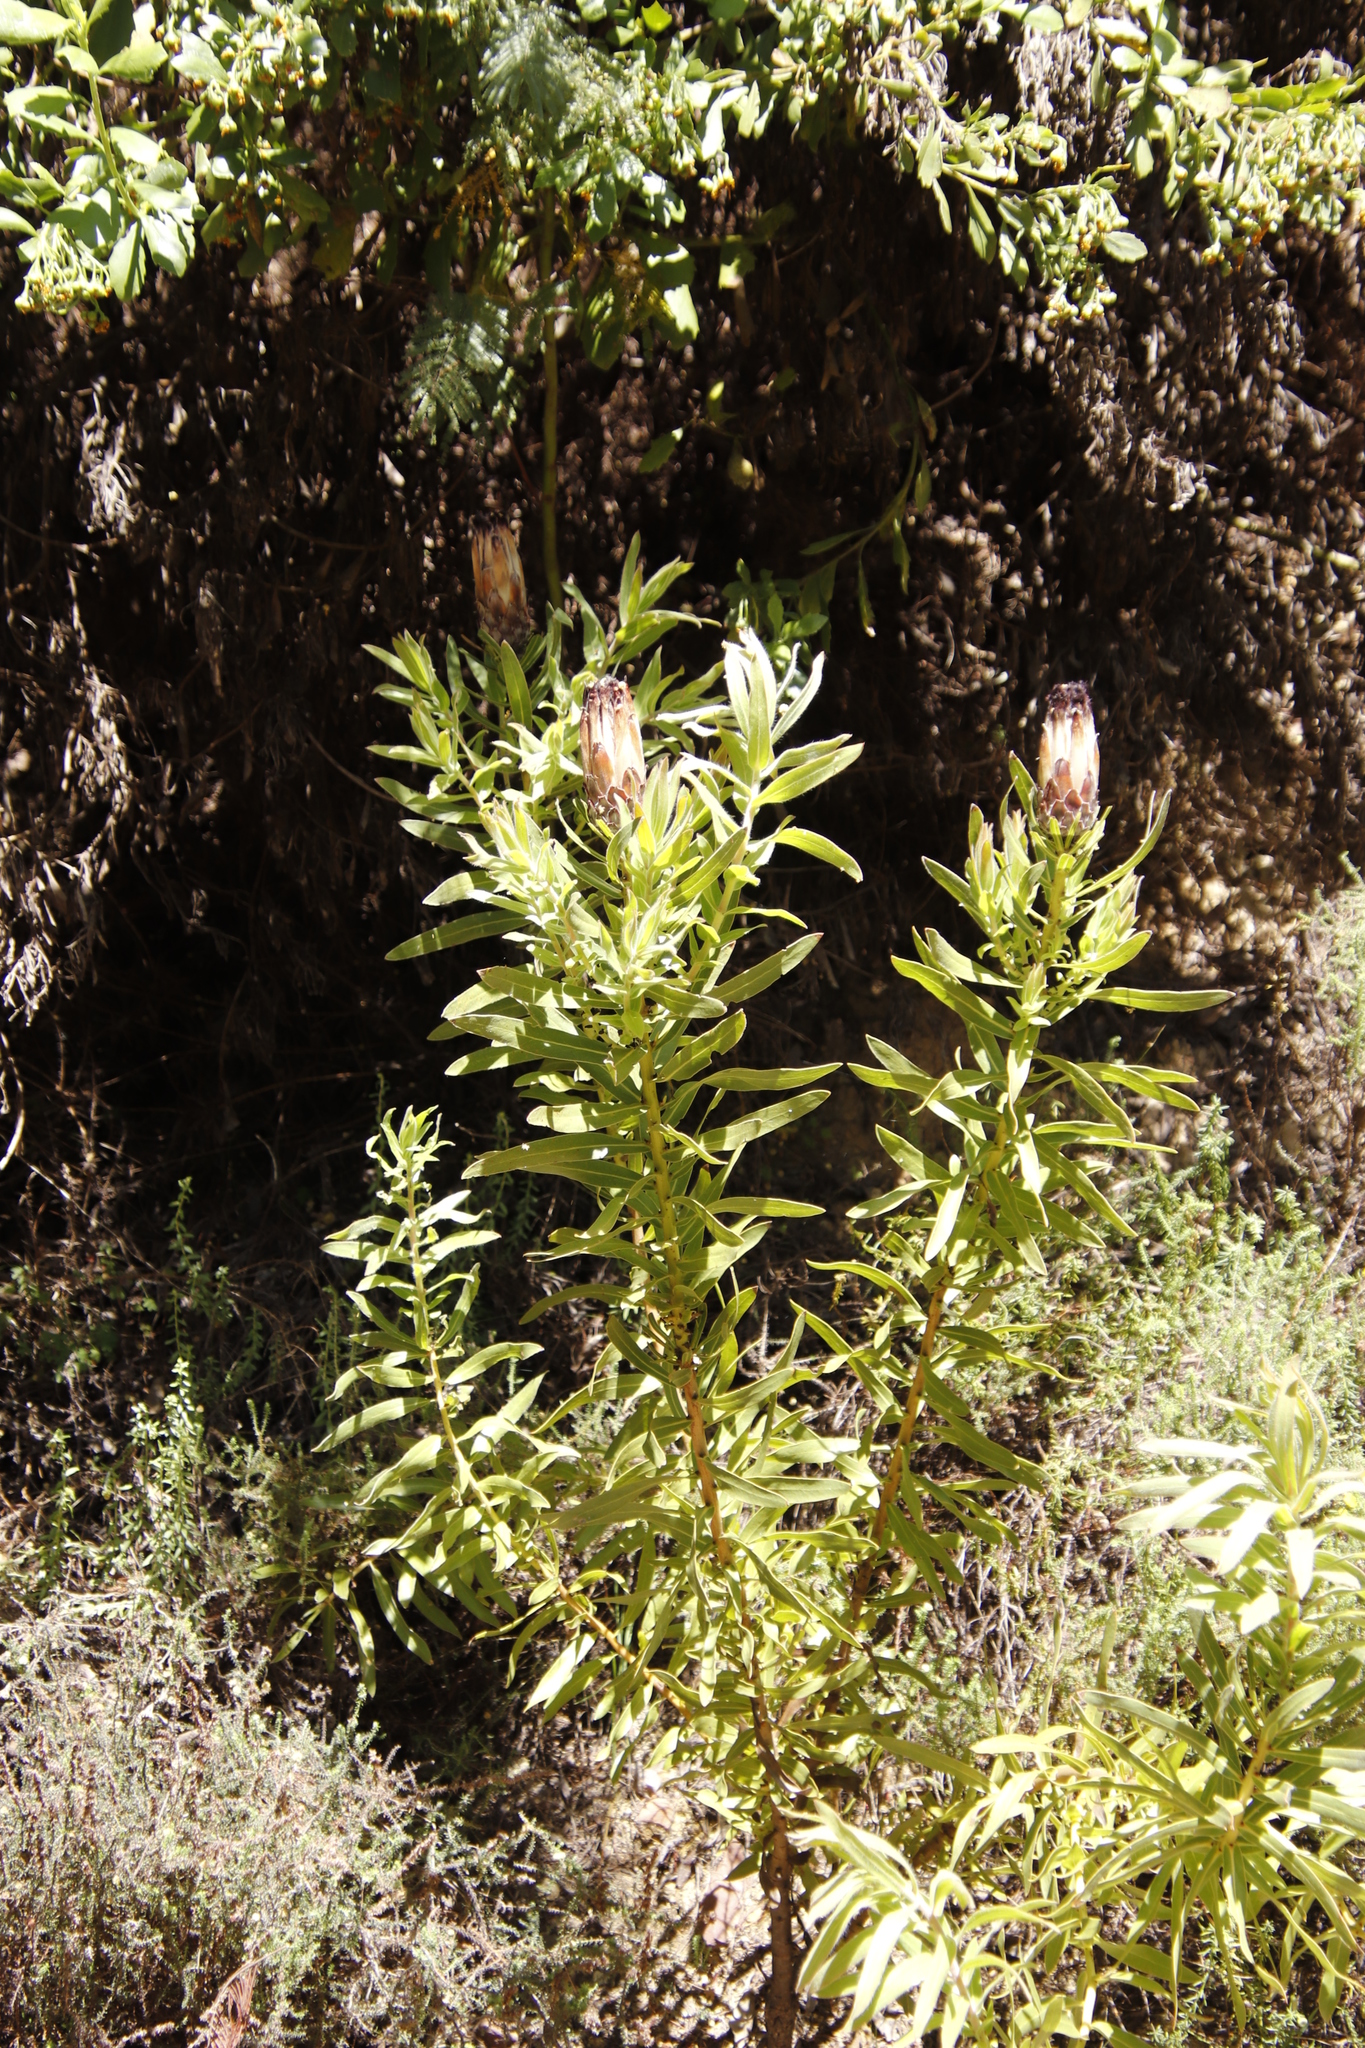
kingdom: Plantae
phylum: Tracheophyta
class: Magnoliopsida
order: Proteales
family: Proteaceae
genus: Protea
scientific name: Protea lepidocarpodendron
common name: Black-bearded protea
